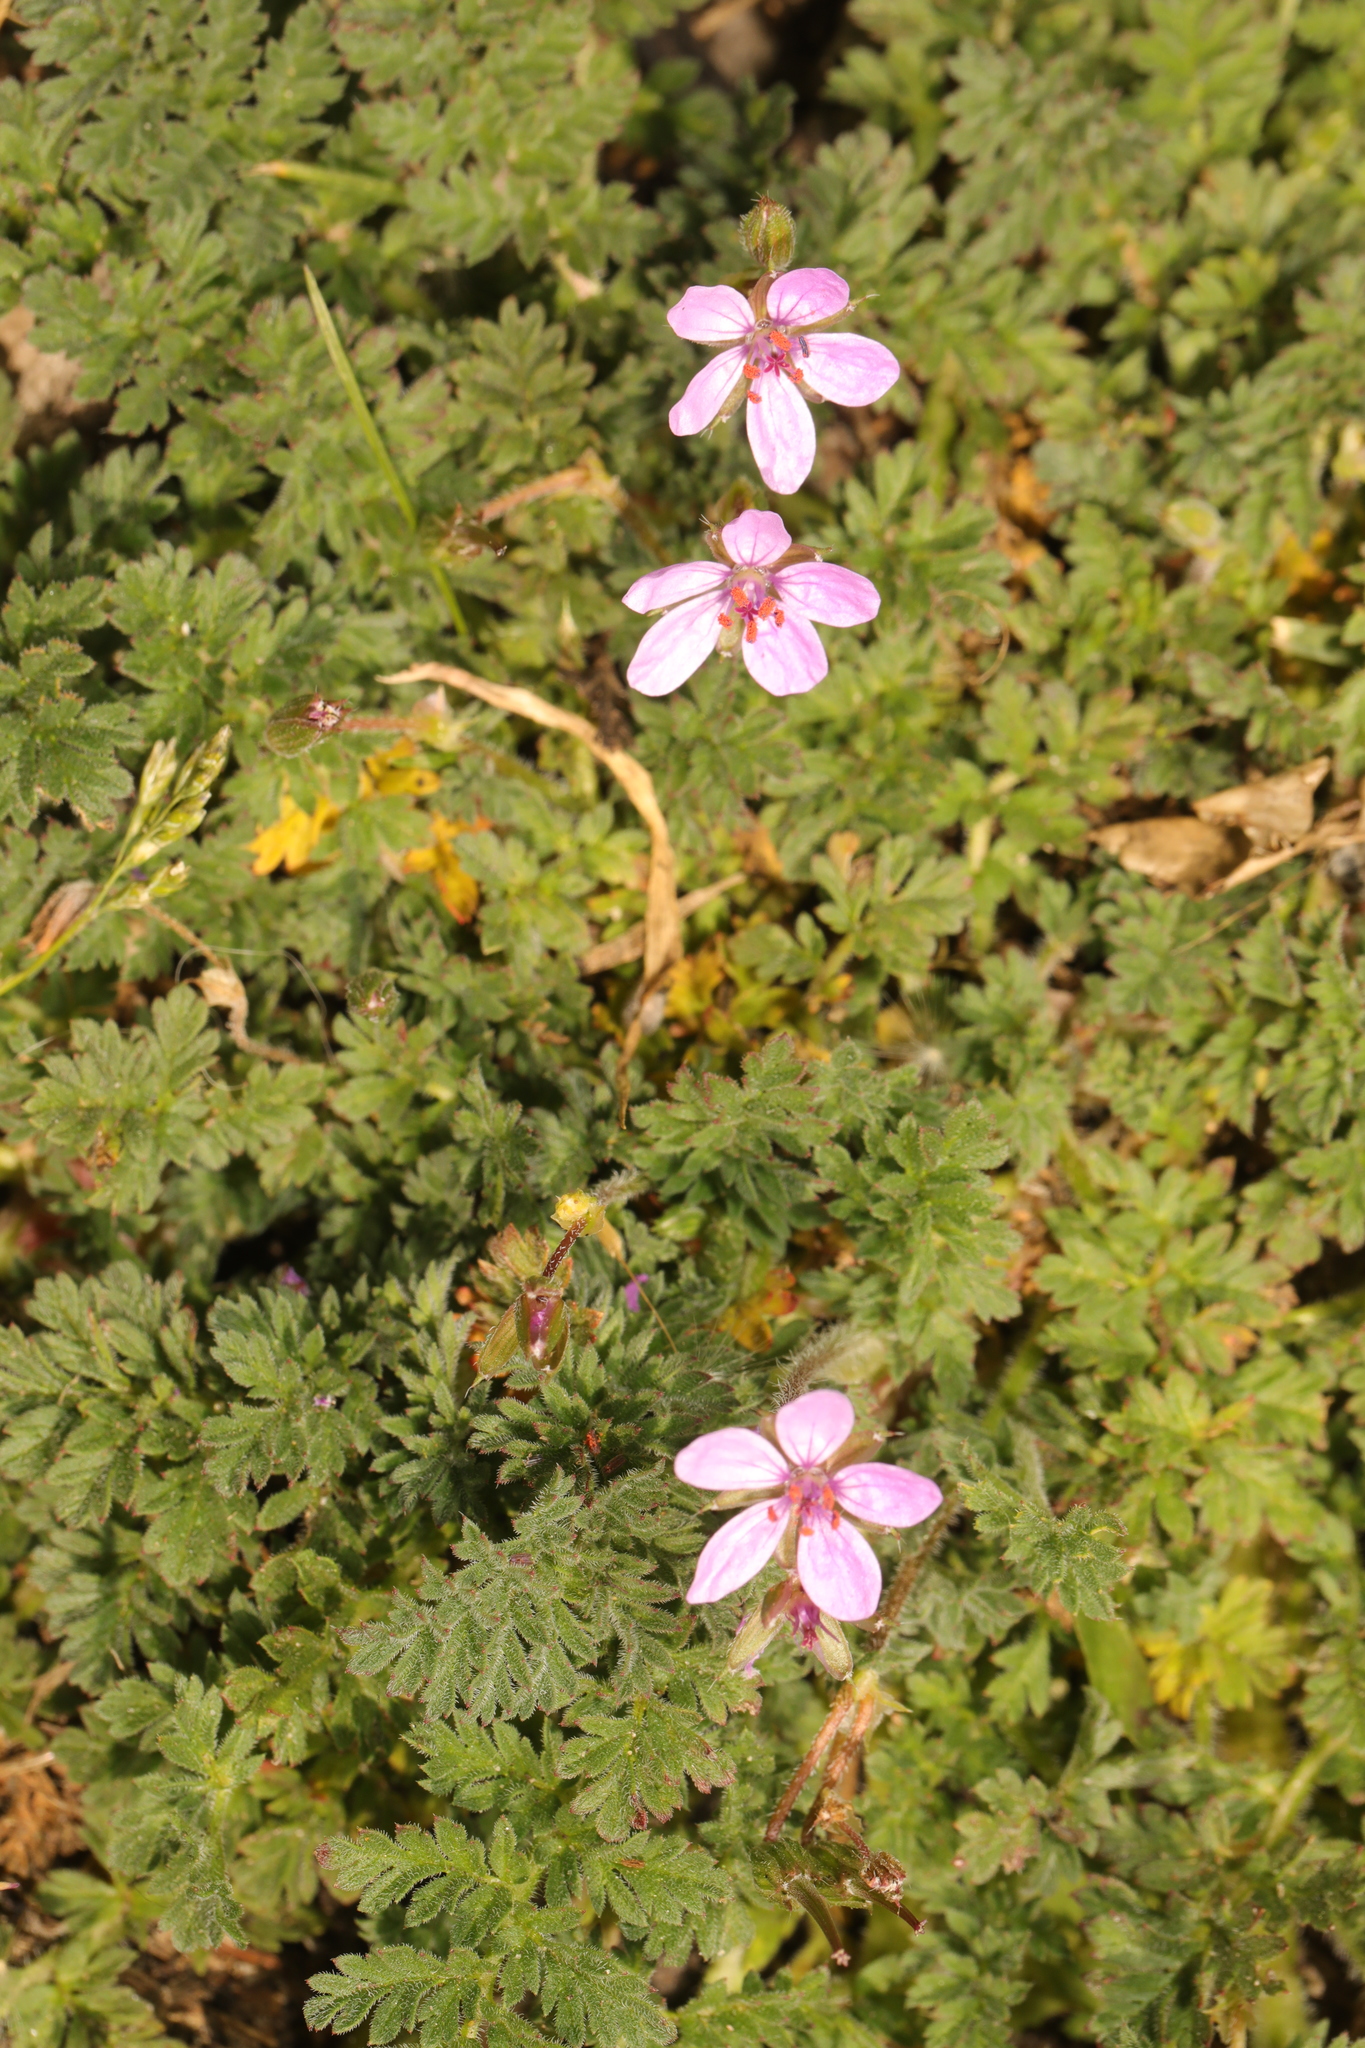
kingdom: Plantae
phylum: Tracheophyta
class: Magnoliopsida
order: Geraniales
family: Geraniaceae
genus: Erodium
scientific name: Erodium cicutarium
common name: Common stork's-bill
